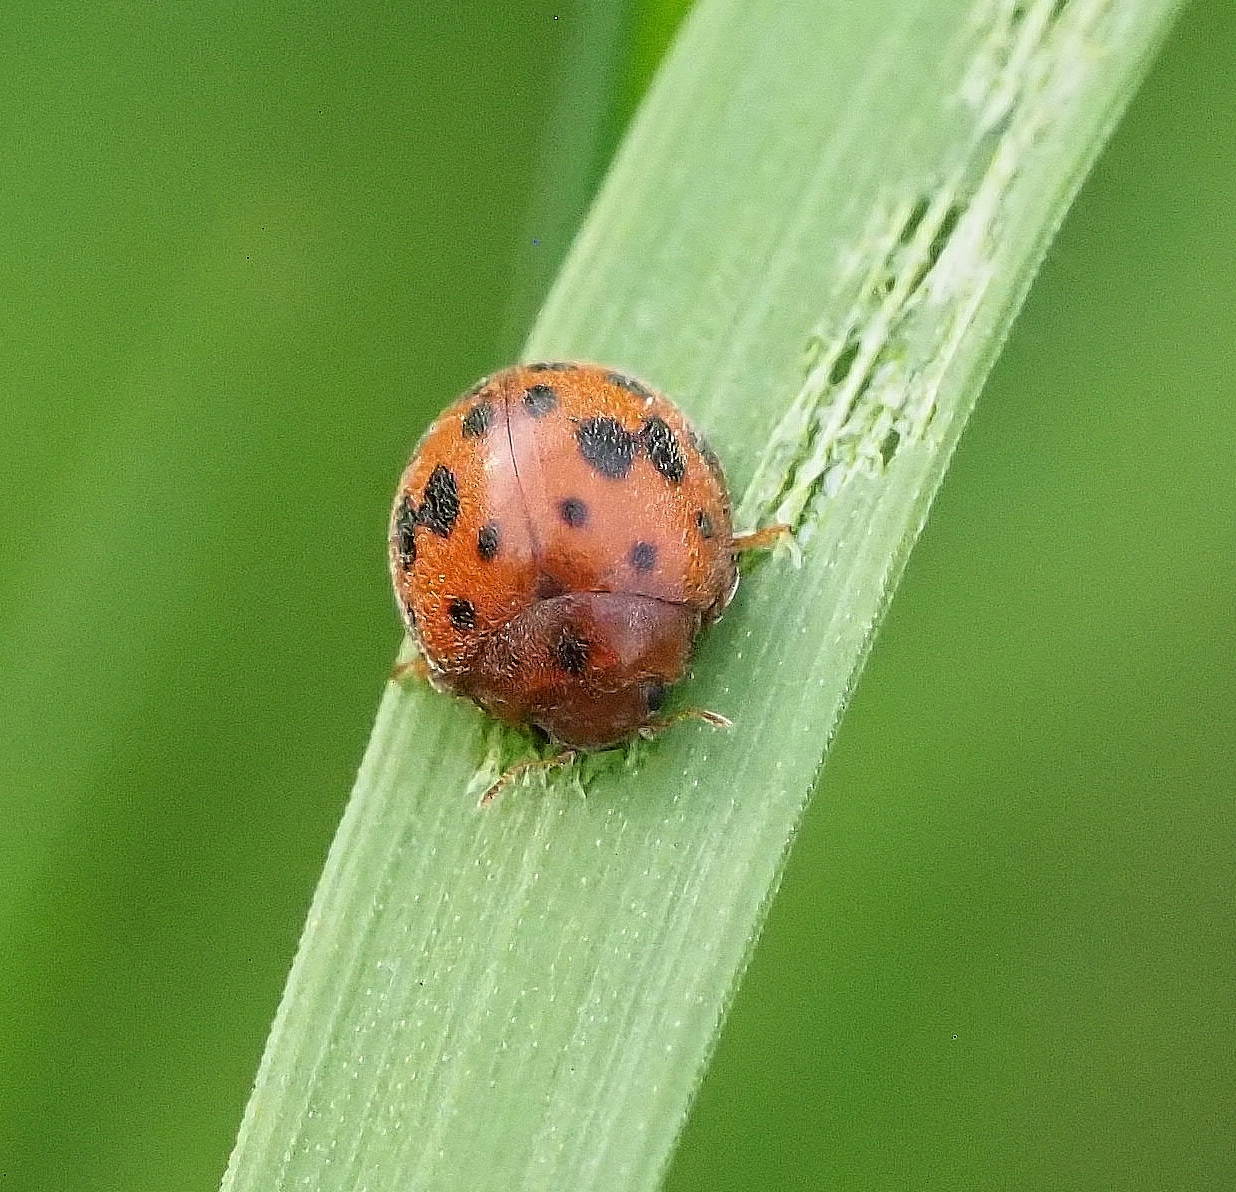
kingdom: Animalia
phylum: Arthropoda
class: Insecta
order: Coleoptera
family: Coccinellidae
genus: Subcoccinella
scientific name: Subcoccinella vigintiquatuorpunctata
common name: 24-spot ladybird
